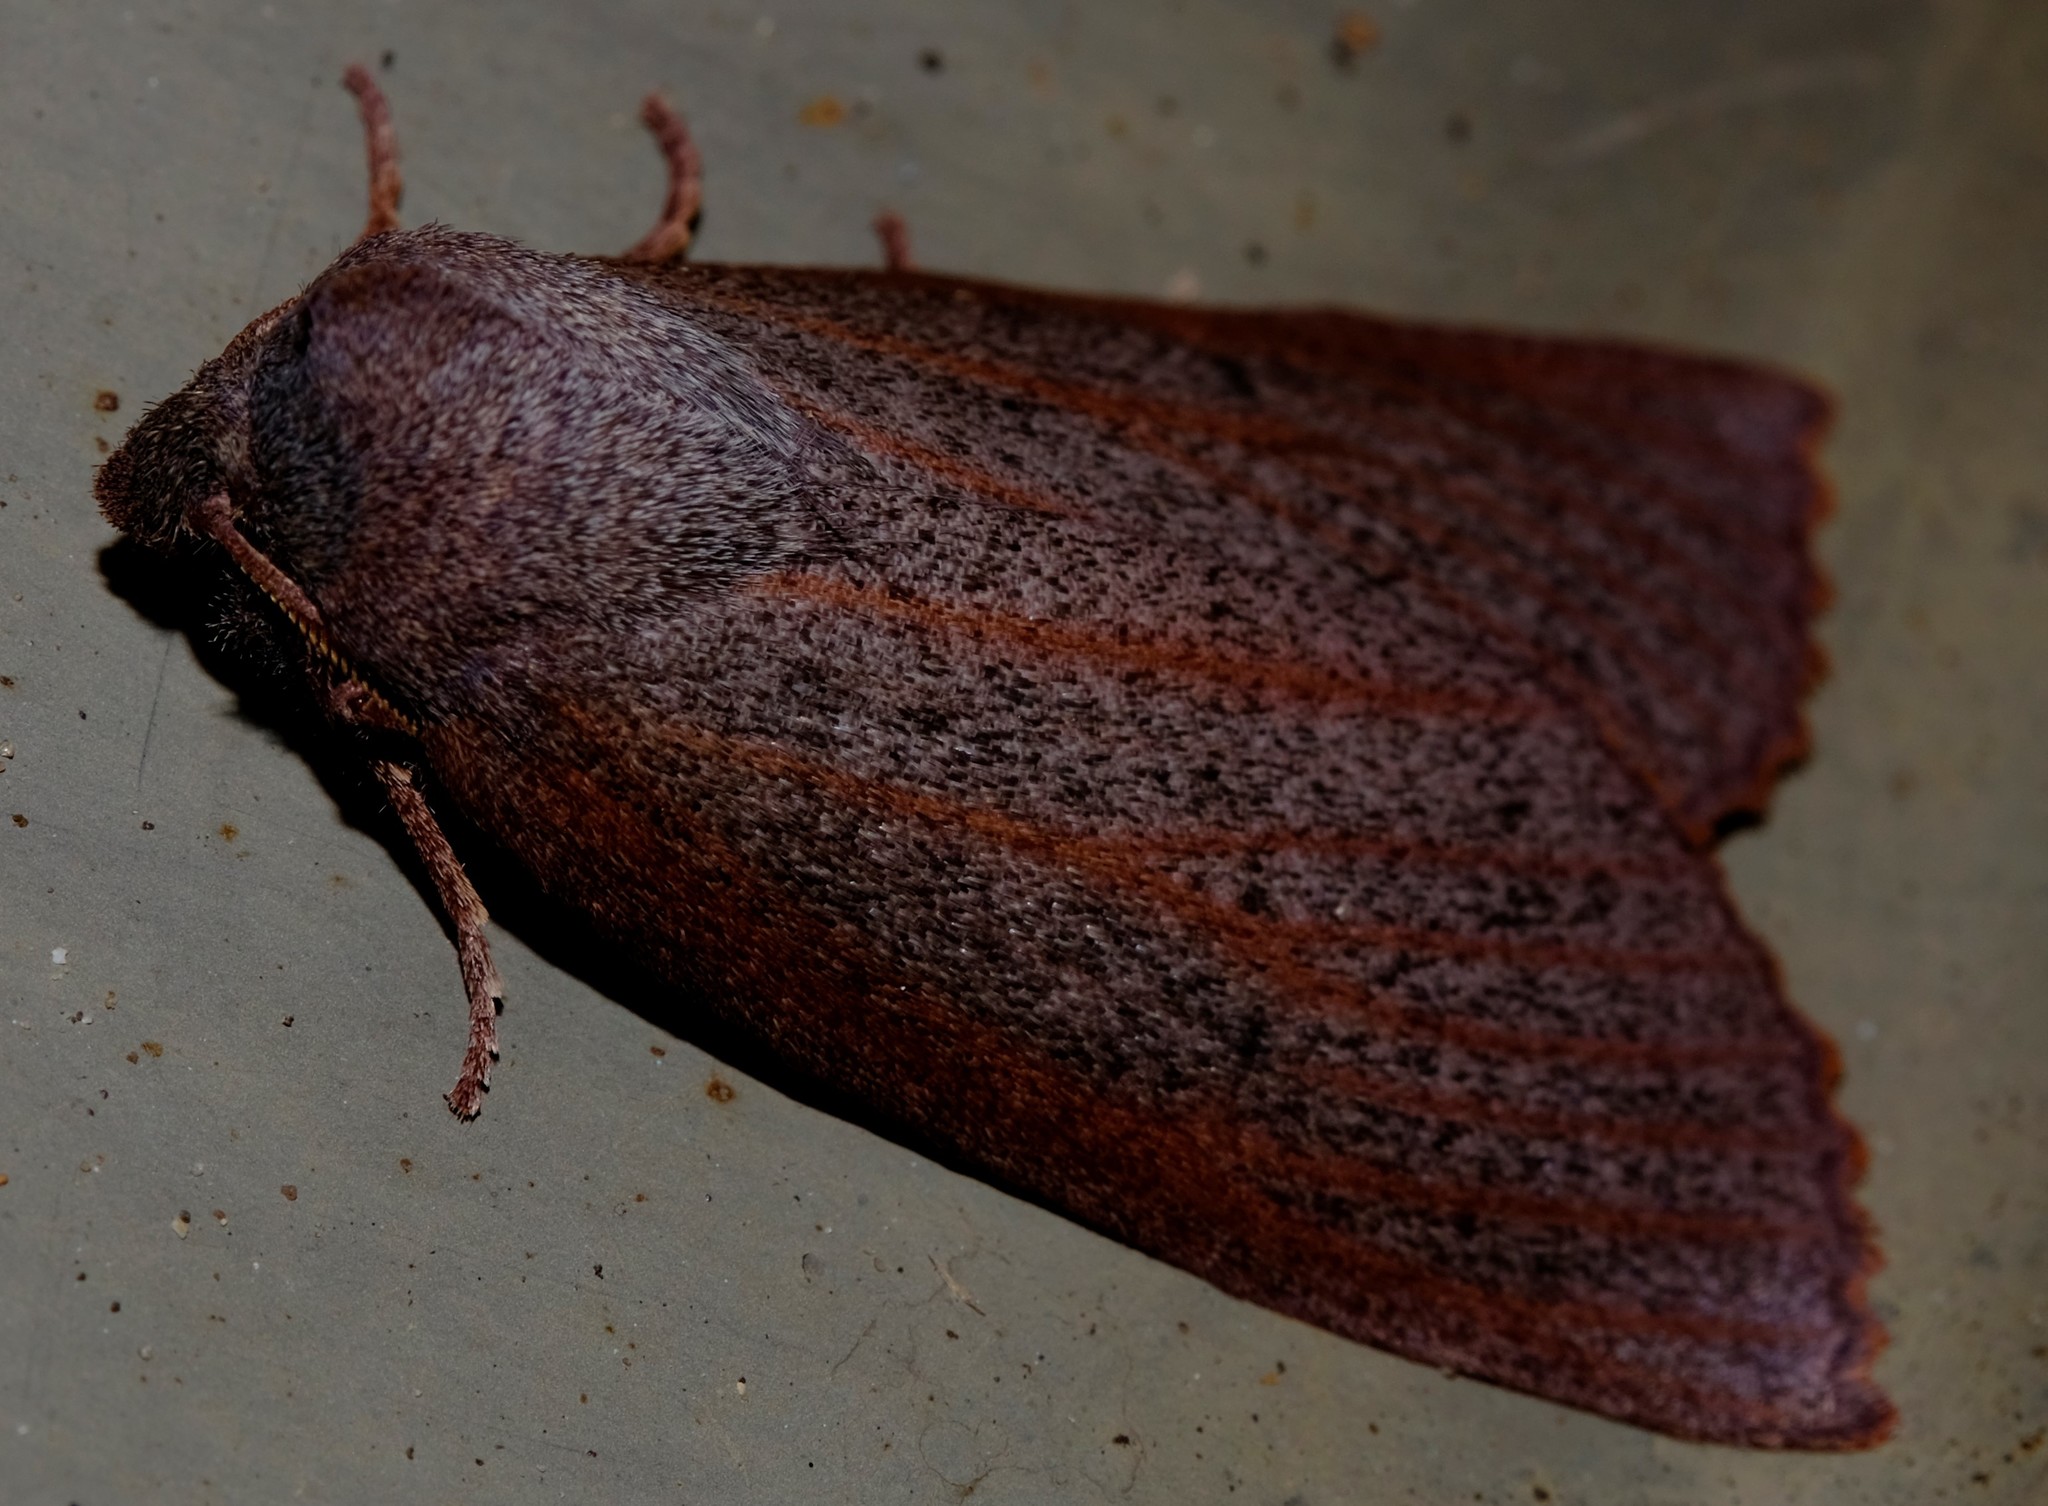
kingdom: Animalia
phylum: Arthropoda
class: Insecta
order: Lepidoptera
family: Geometridae
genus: Paralaea
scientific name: Paralaea porphyrinaria
